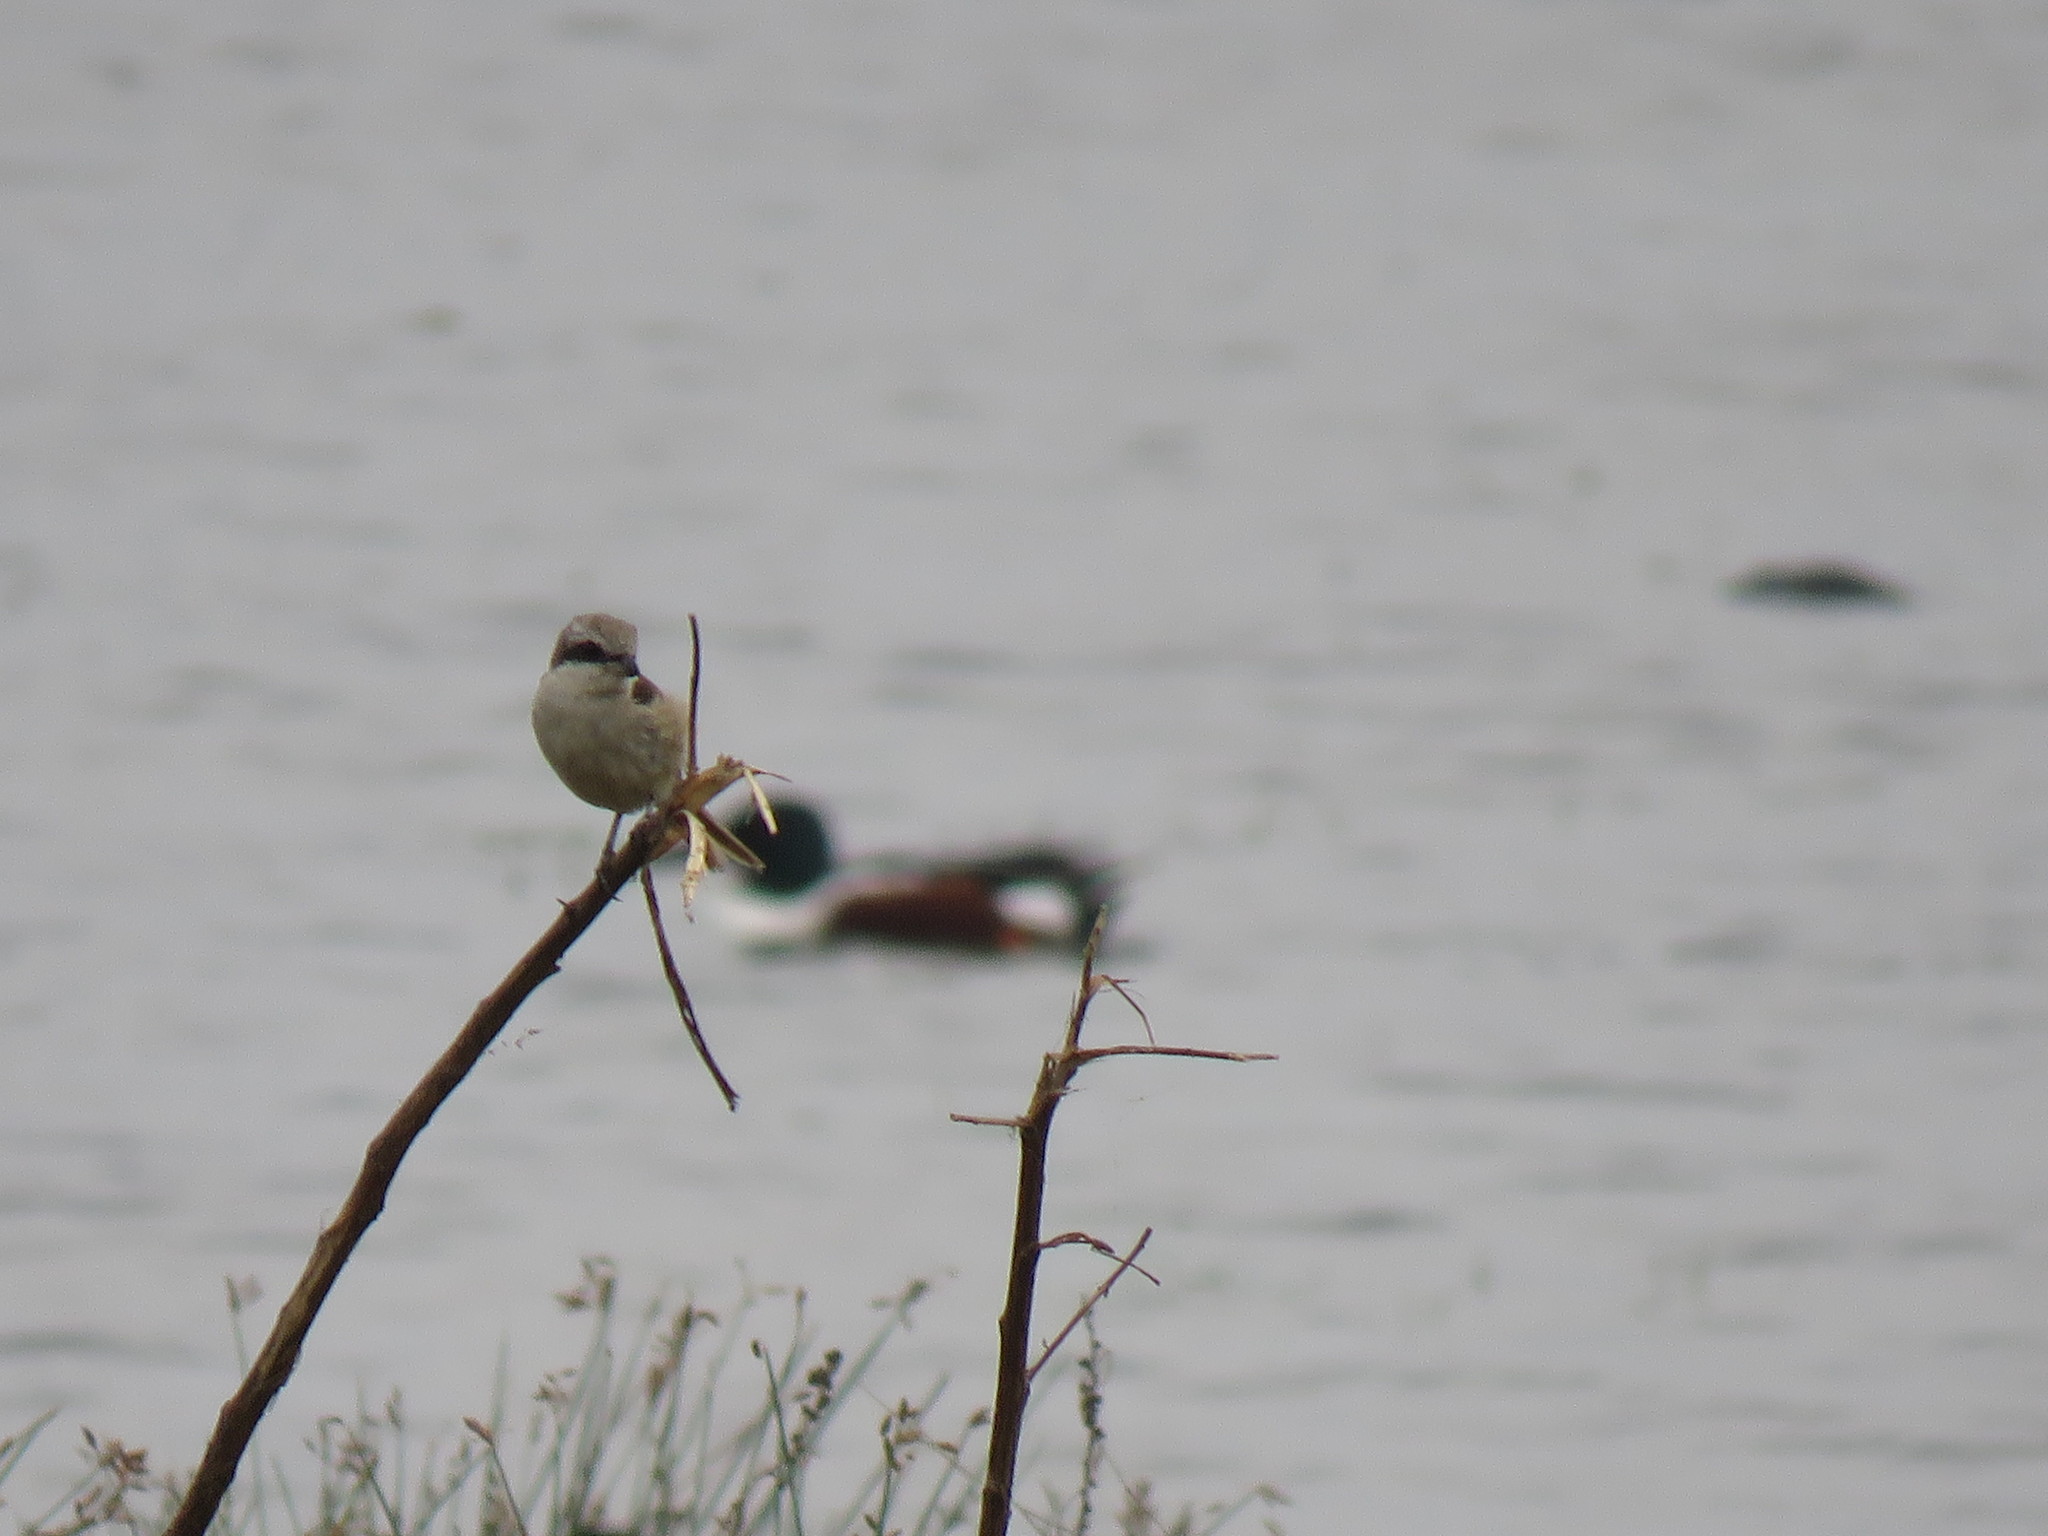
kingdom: Animalia
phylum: Chordata
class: Aves
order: Passeriformes
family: Laniidae
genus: Lanius
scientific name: Lanius cristatus
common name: Brown shrike
